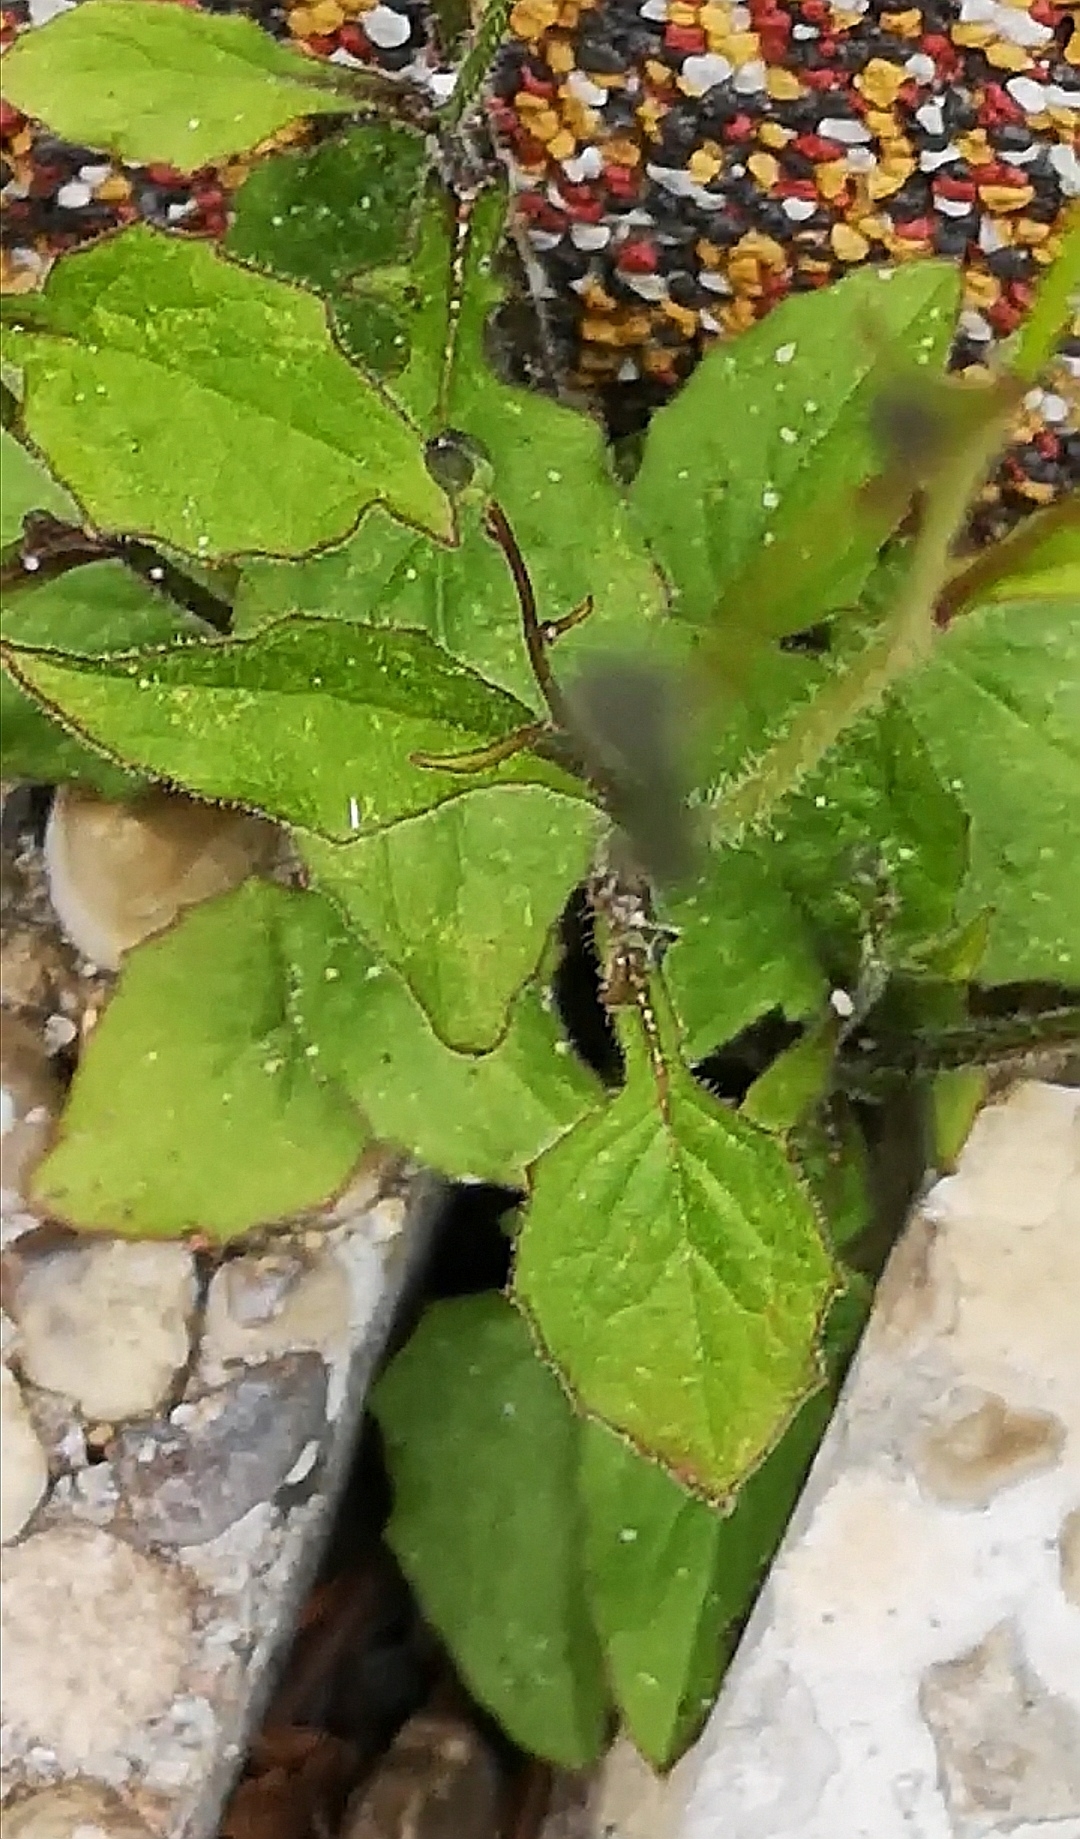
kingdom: Plantae
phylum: Tracheophyta
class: Magnoliopsida
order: Asterales
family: Asteraceae
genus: Lapsana
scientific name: Lapsana communis
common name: Nipplewort
